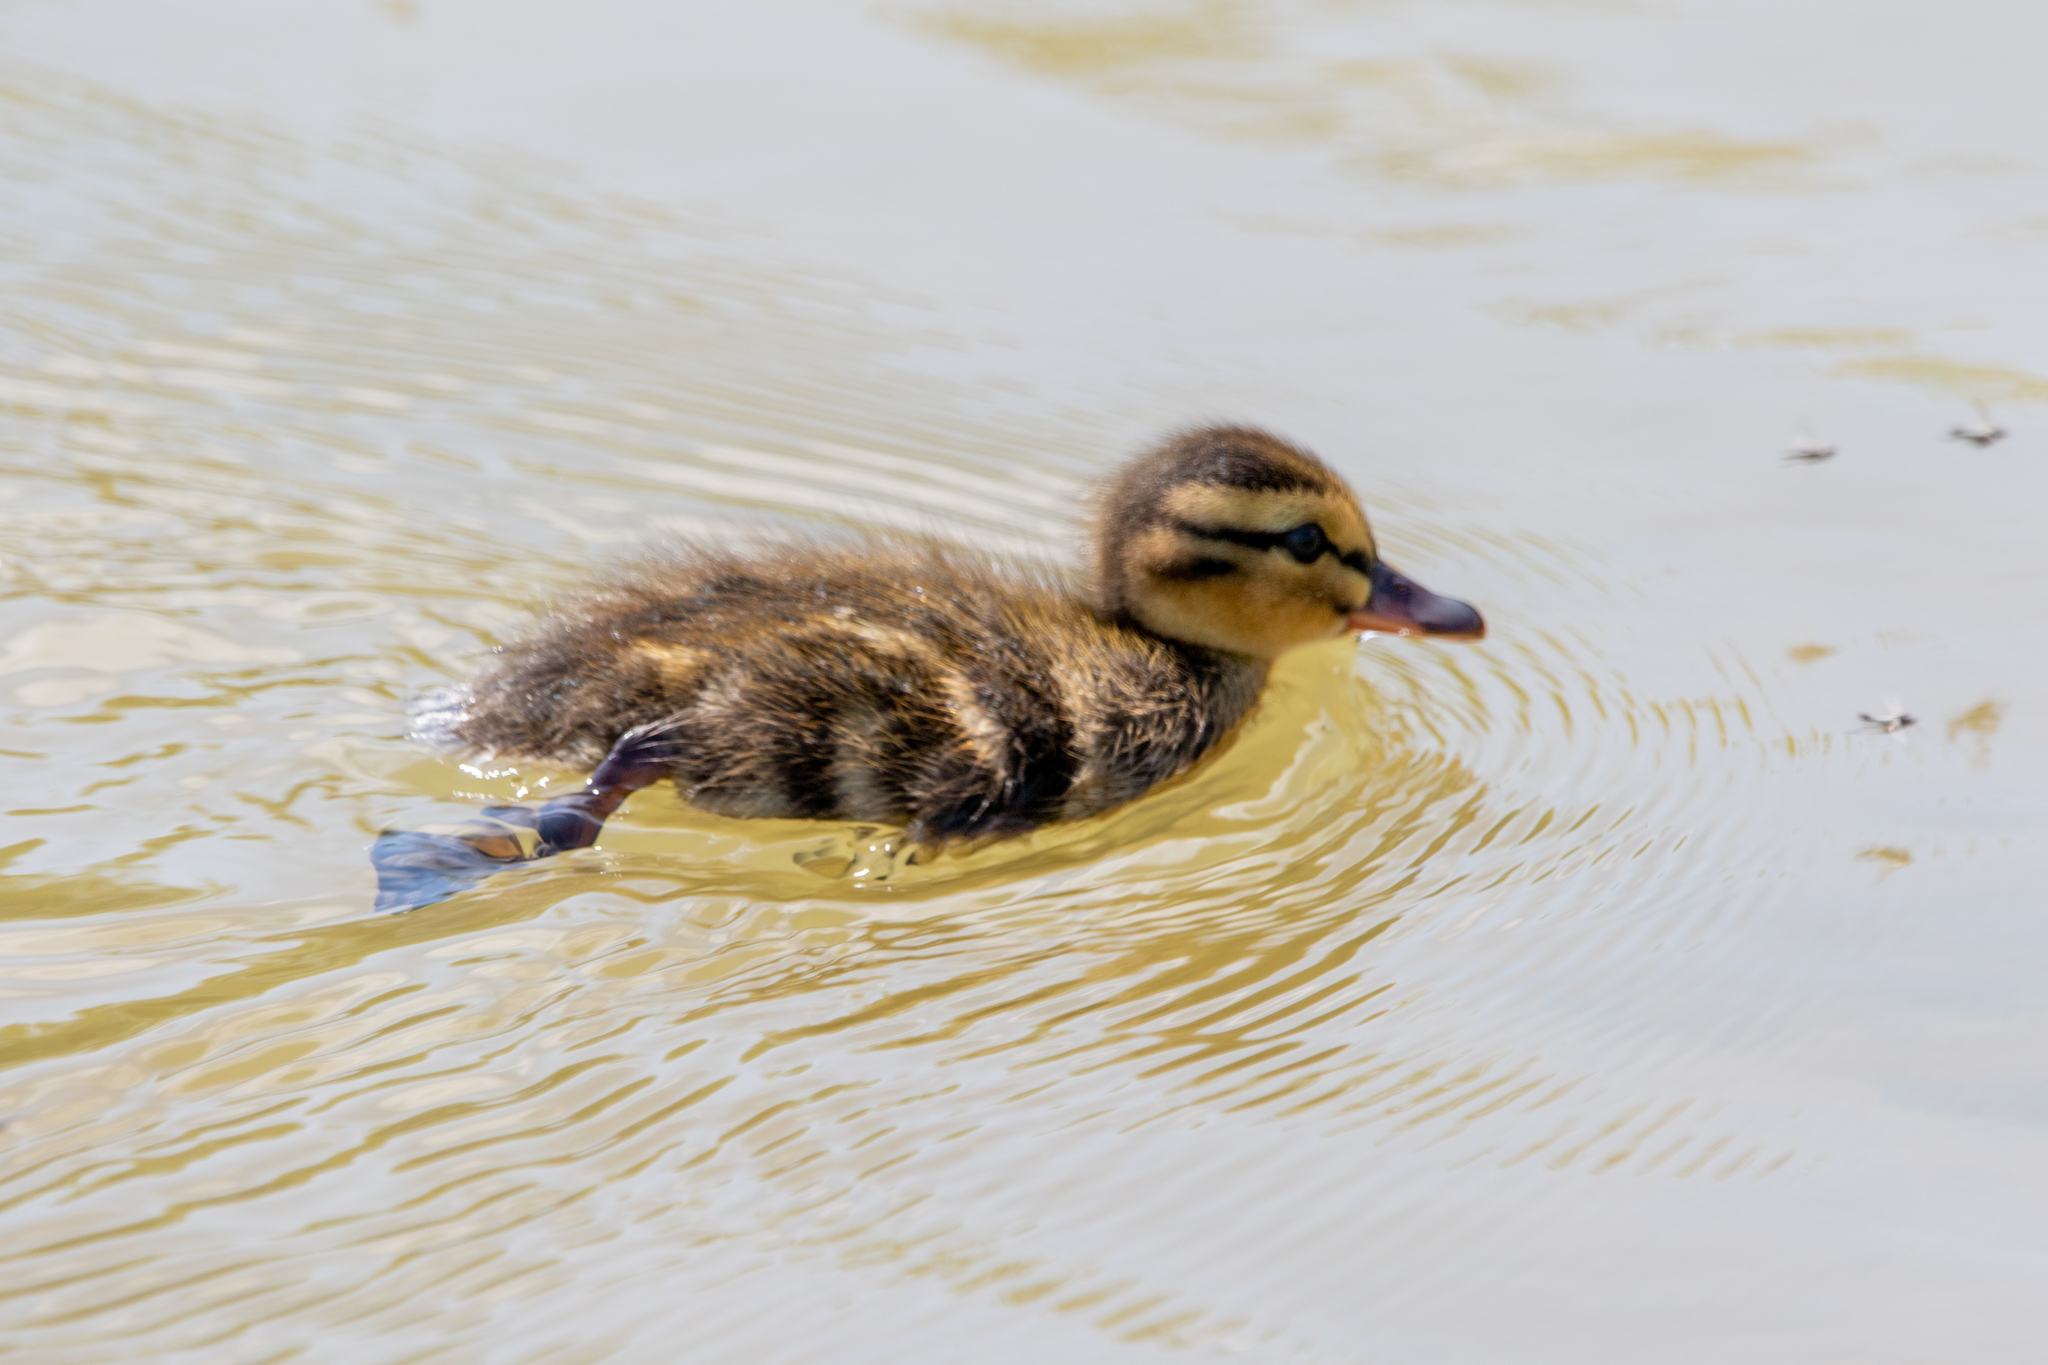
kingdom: Animalia
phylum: Chordata
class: Aves
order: Anseriformes
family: Anatidae
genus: Anas
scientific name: Anas platyrhynchos
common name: Mallard
